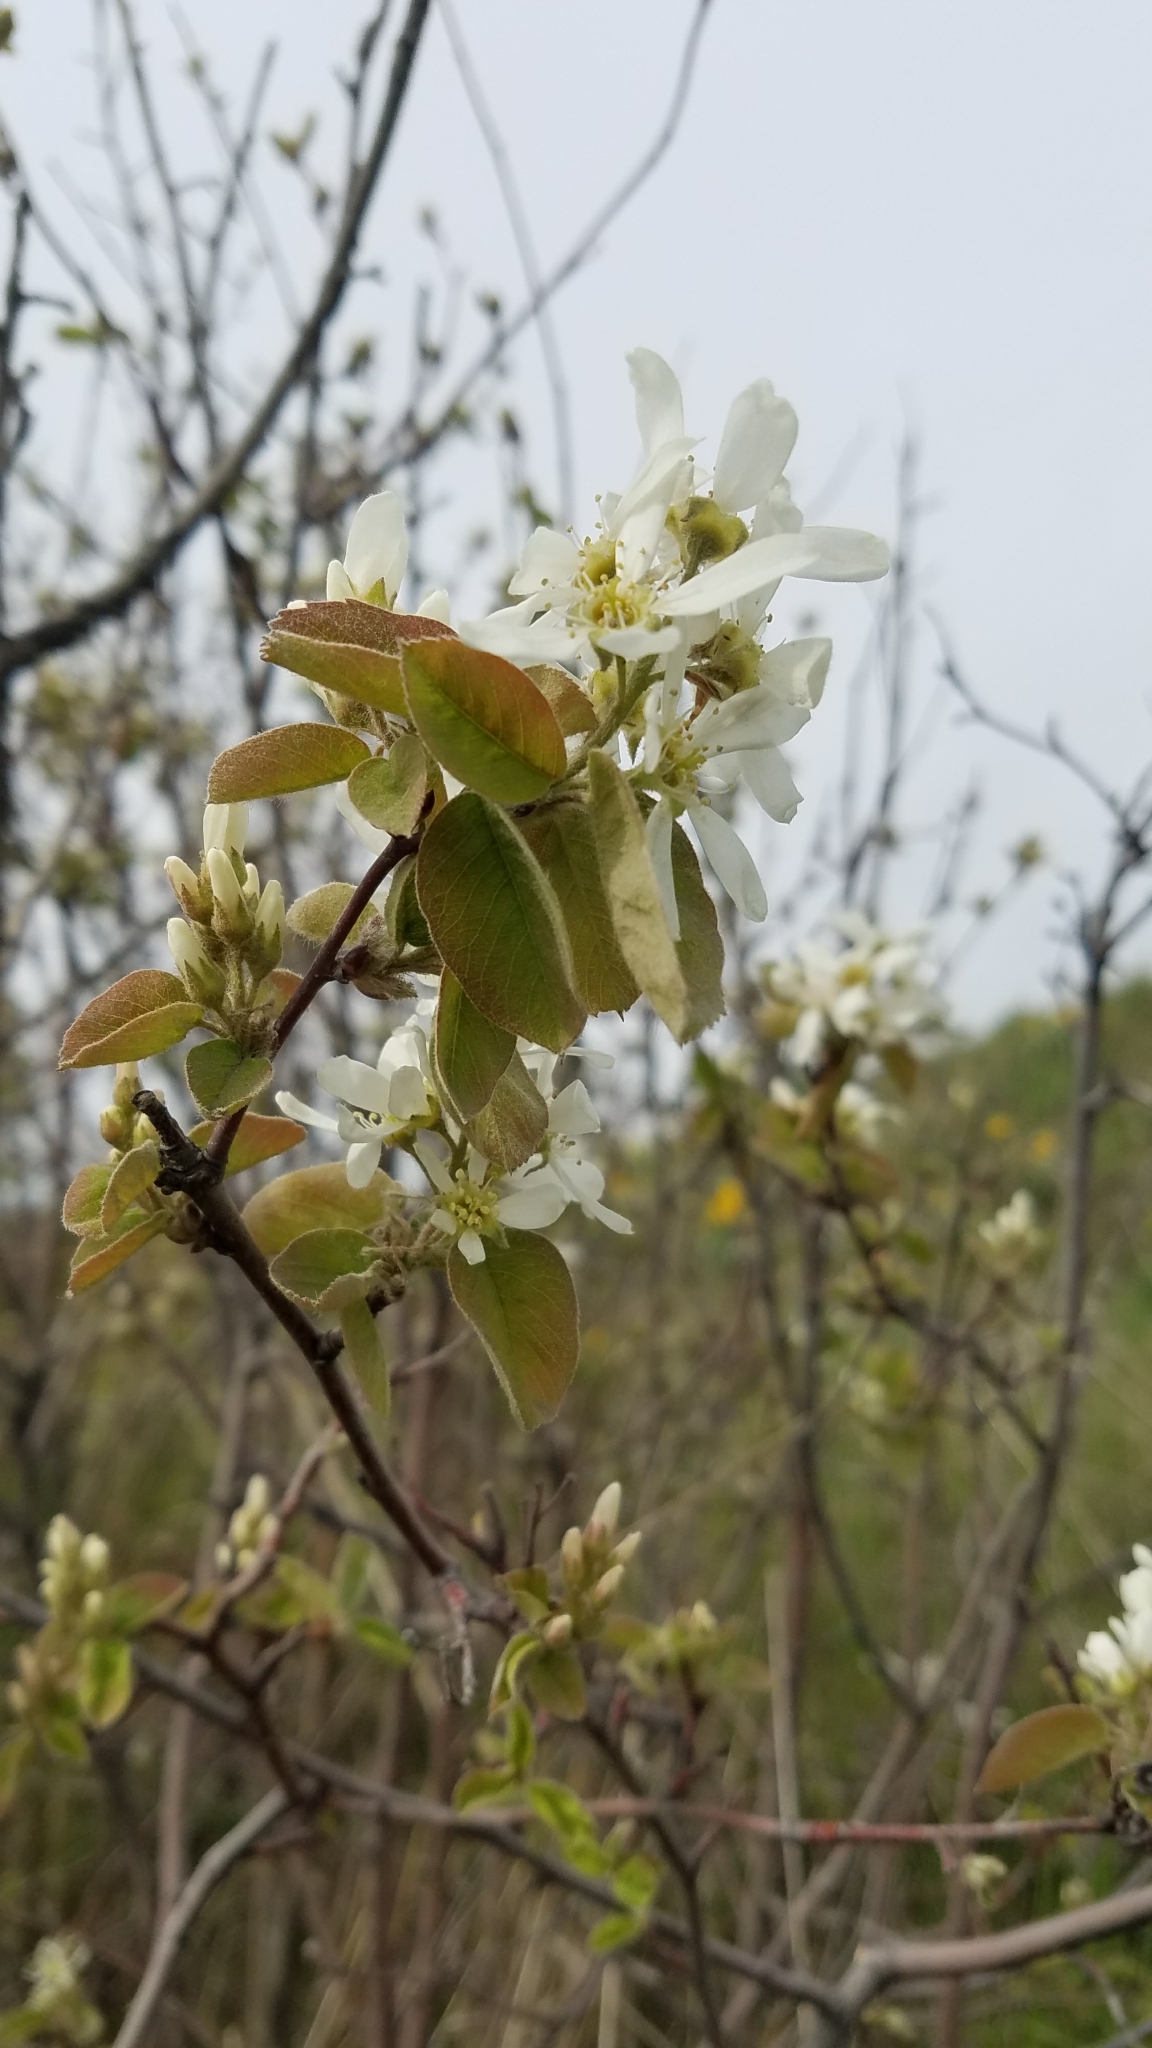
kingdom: Plantae
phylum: Tracheophyta
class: Magnoliopsida
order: Rosales
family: Rosaceae
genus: Amelanchier
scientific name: Amelanchier alnifolia
